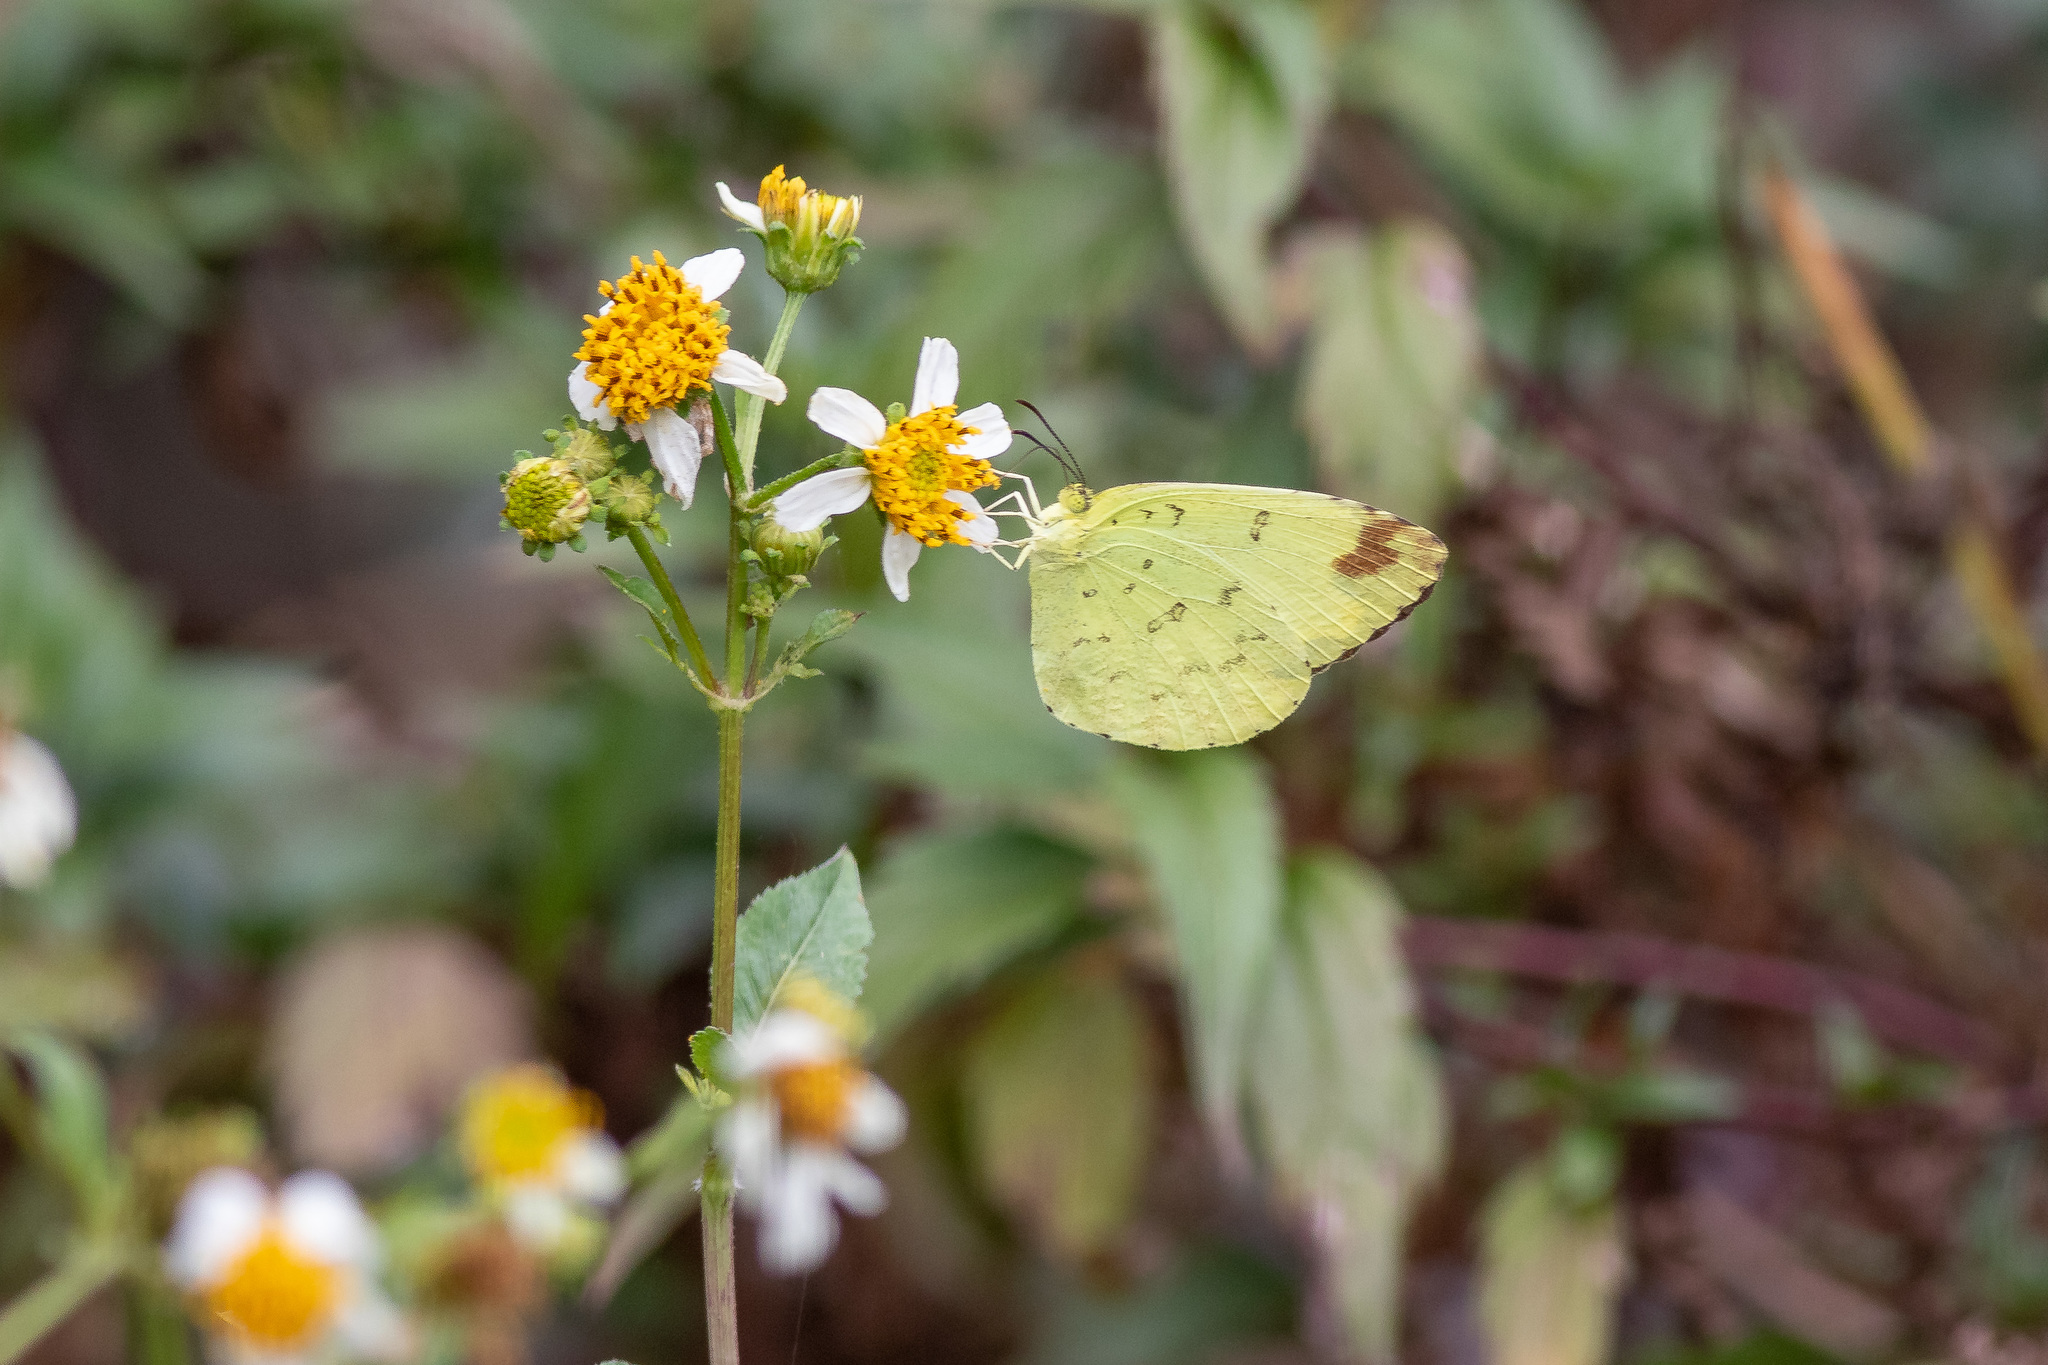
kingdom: Animalia
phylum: Arthropoda
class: Insecta
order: Lepidoptera
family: Pieridae
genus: Eurema
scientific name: Eurema blanda
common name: Three-spot grass yellow
